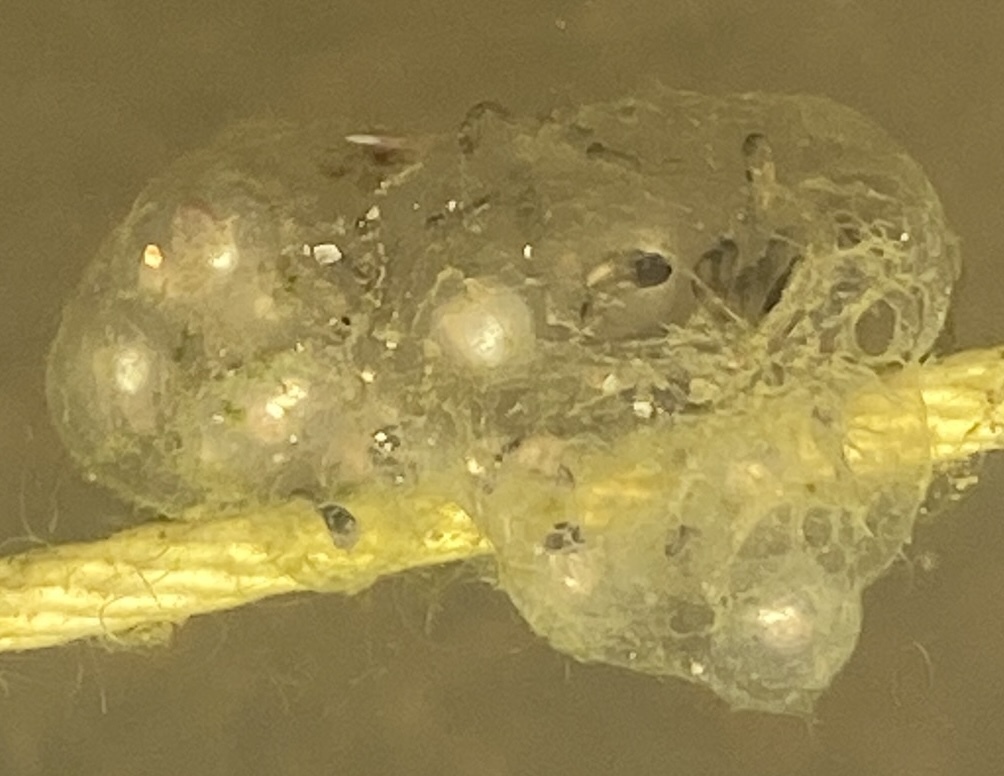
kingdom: Animalia
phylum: Chordata
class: Amphibia
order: Anura
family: Hylidae
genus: Pseudacris
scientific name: Pseudacris regilla
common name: Pacific chorus frog
